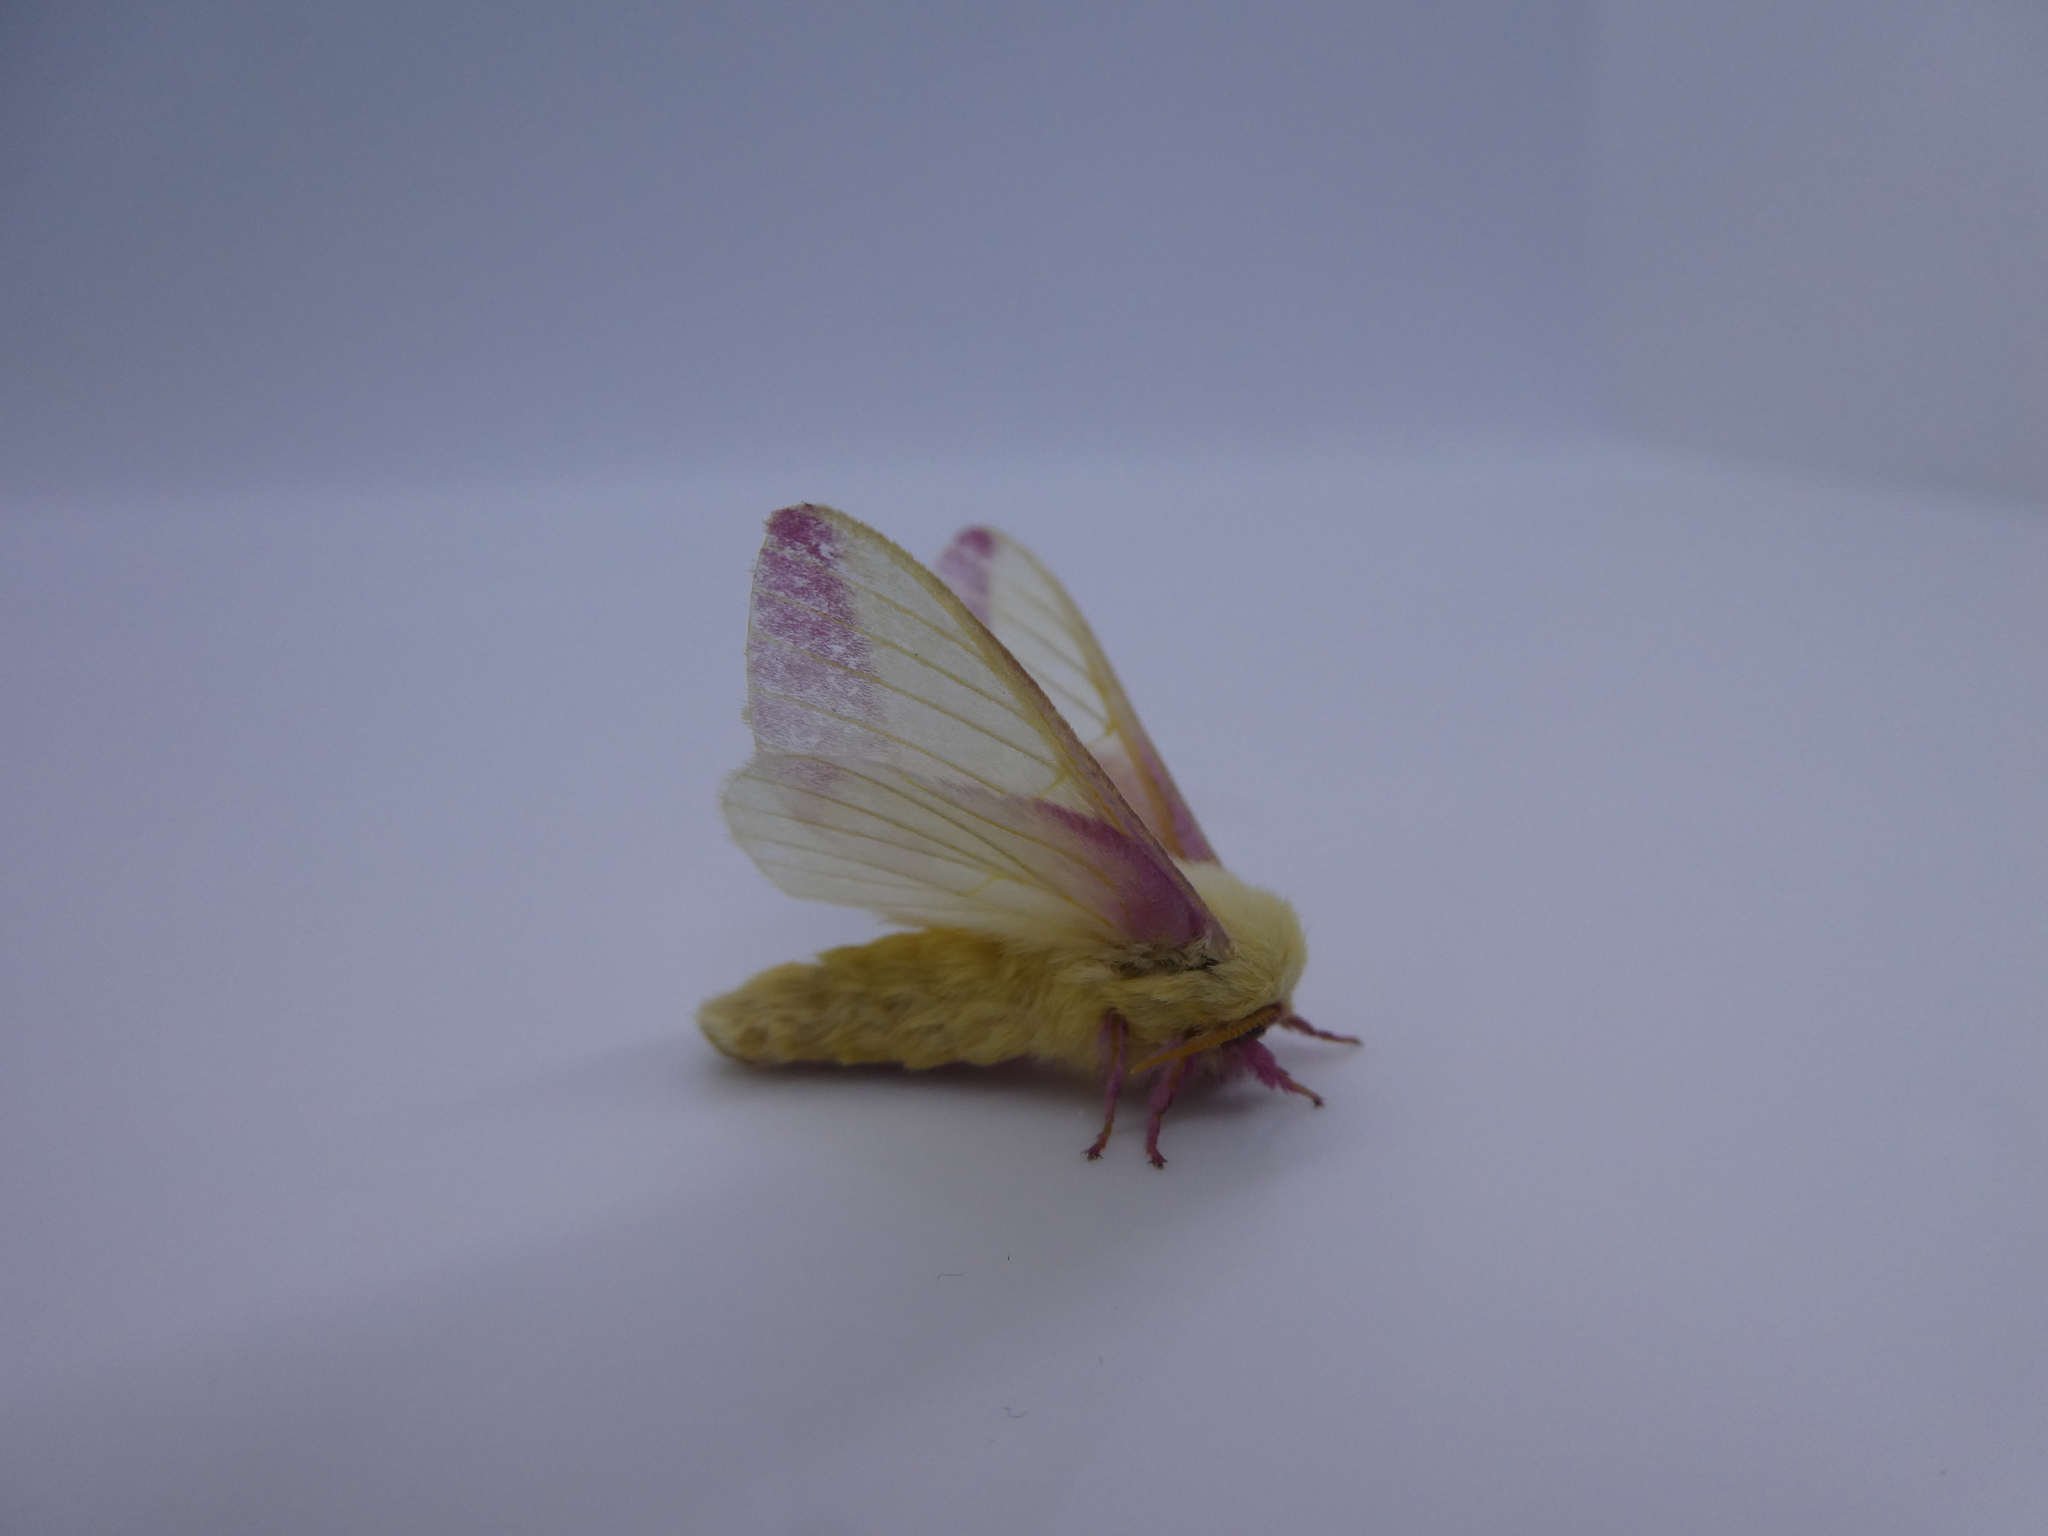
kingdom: Animalia
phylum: Arthropoda
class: Insecta
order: Lepidoptera
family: Saturniidae
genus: Dryocampa
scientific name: Dryocampa rubicunda
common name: Rosy maple moth
